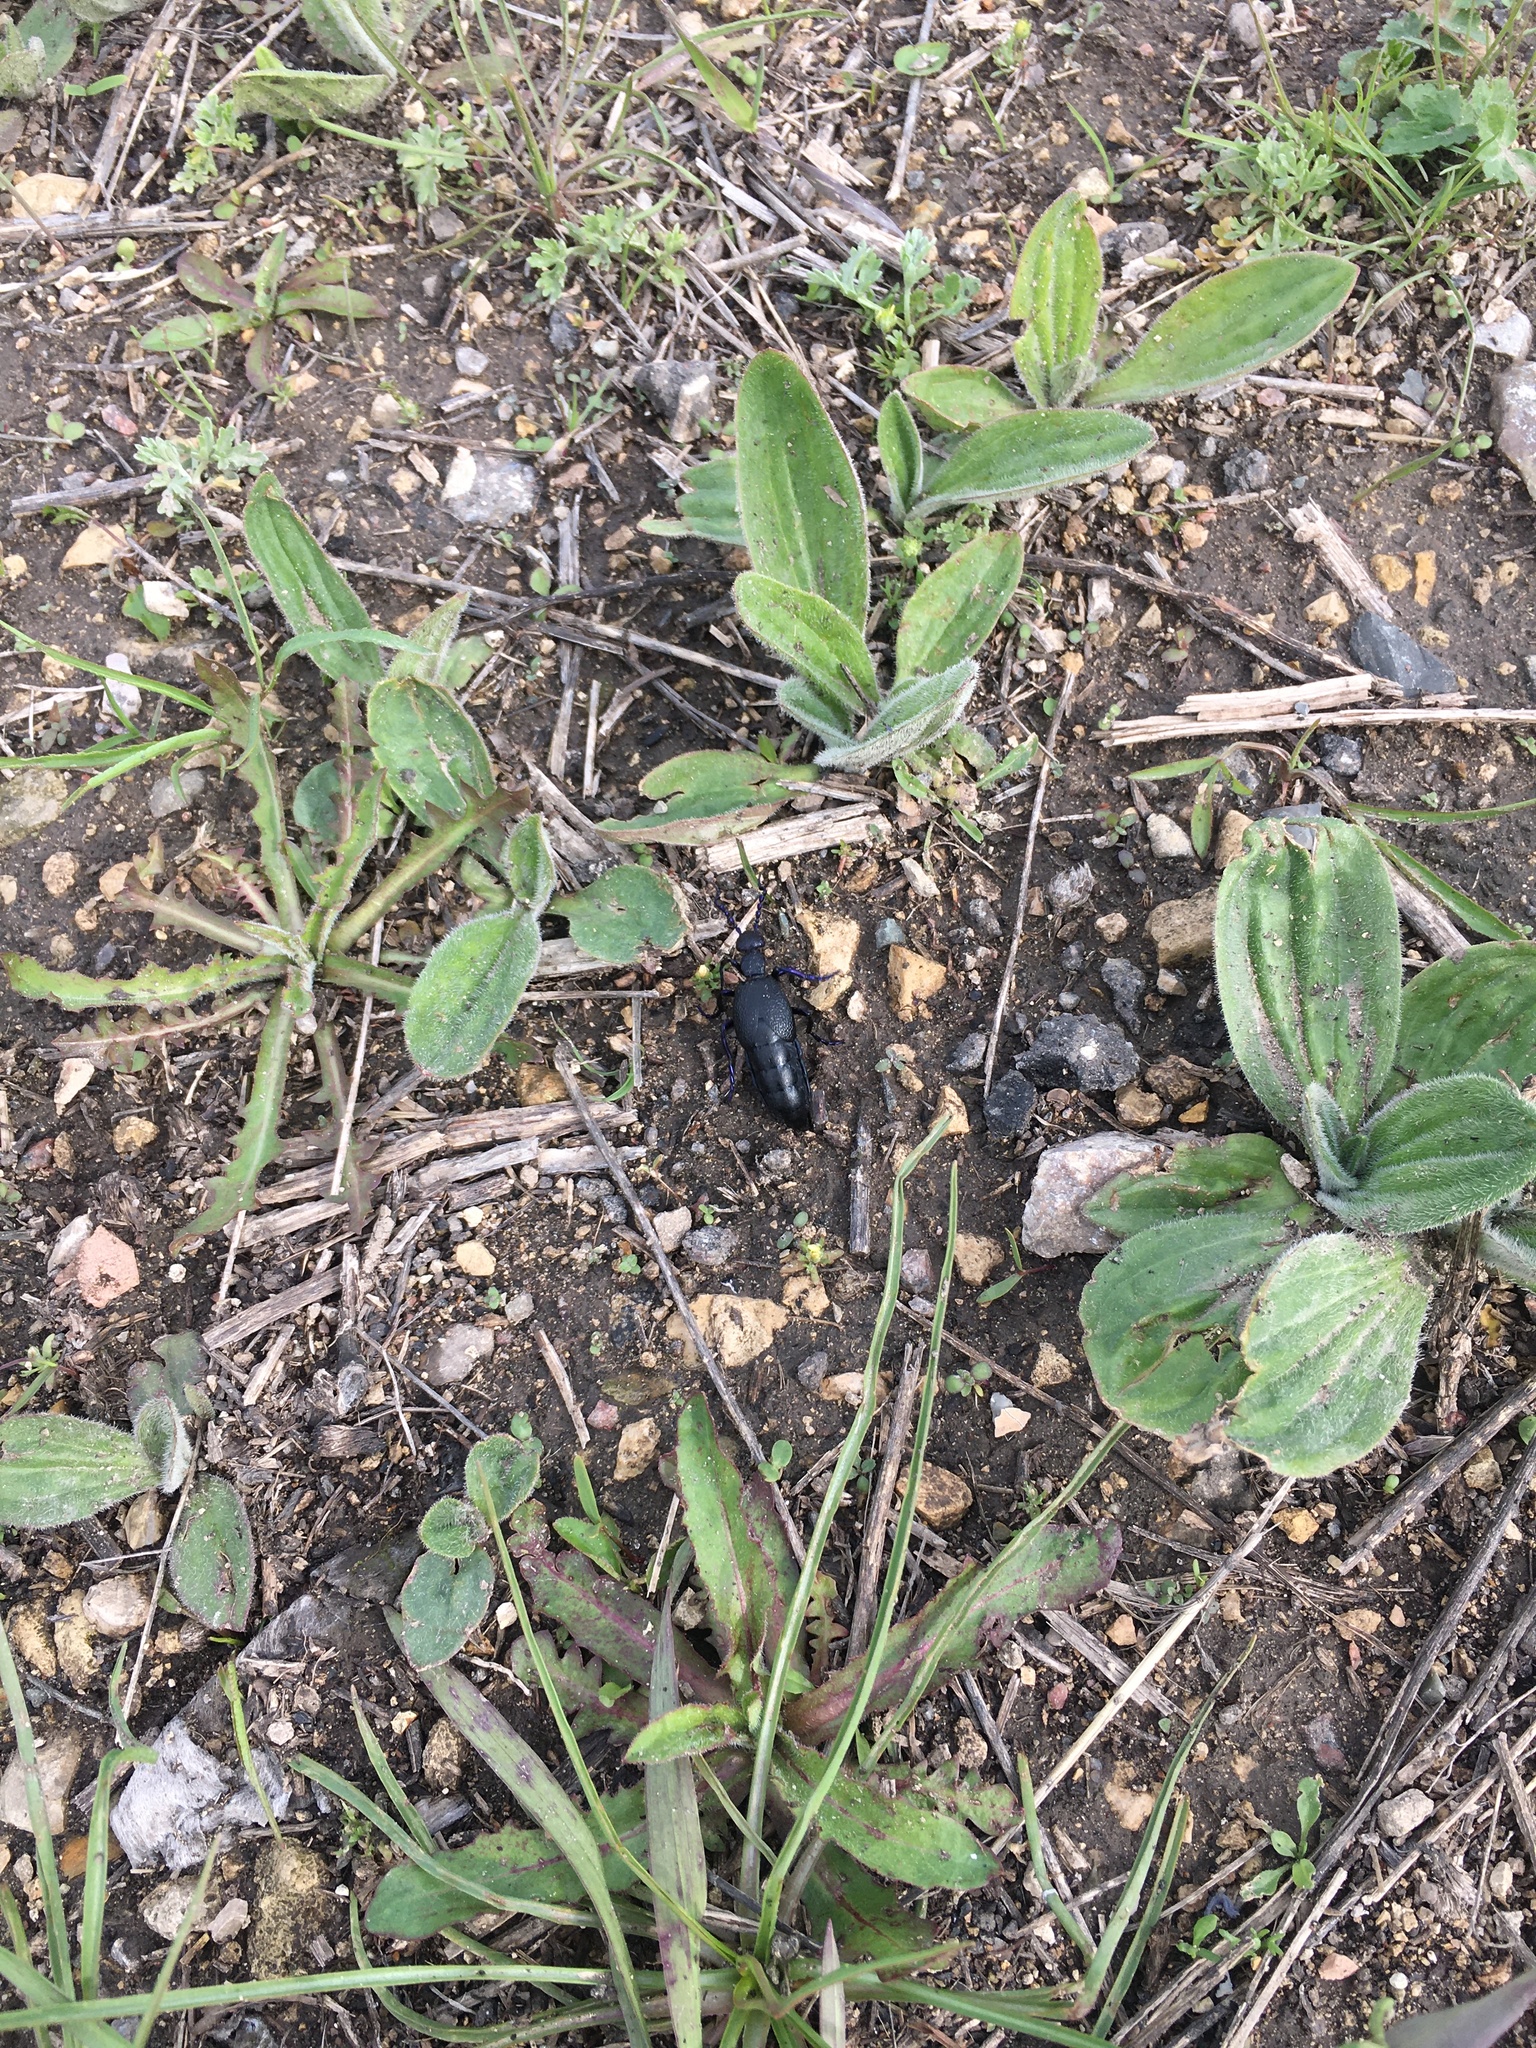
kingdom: Plantae
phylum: Tracheophyta
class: Magnoliopsida
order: Lamiales
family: Plantaginaceae
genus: Plantago
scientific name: Plantago media
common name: Hoary plantain
